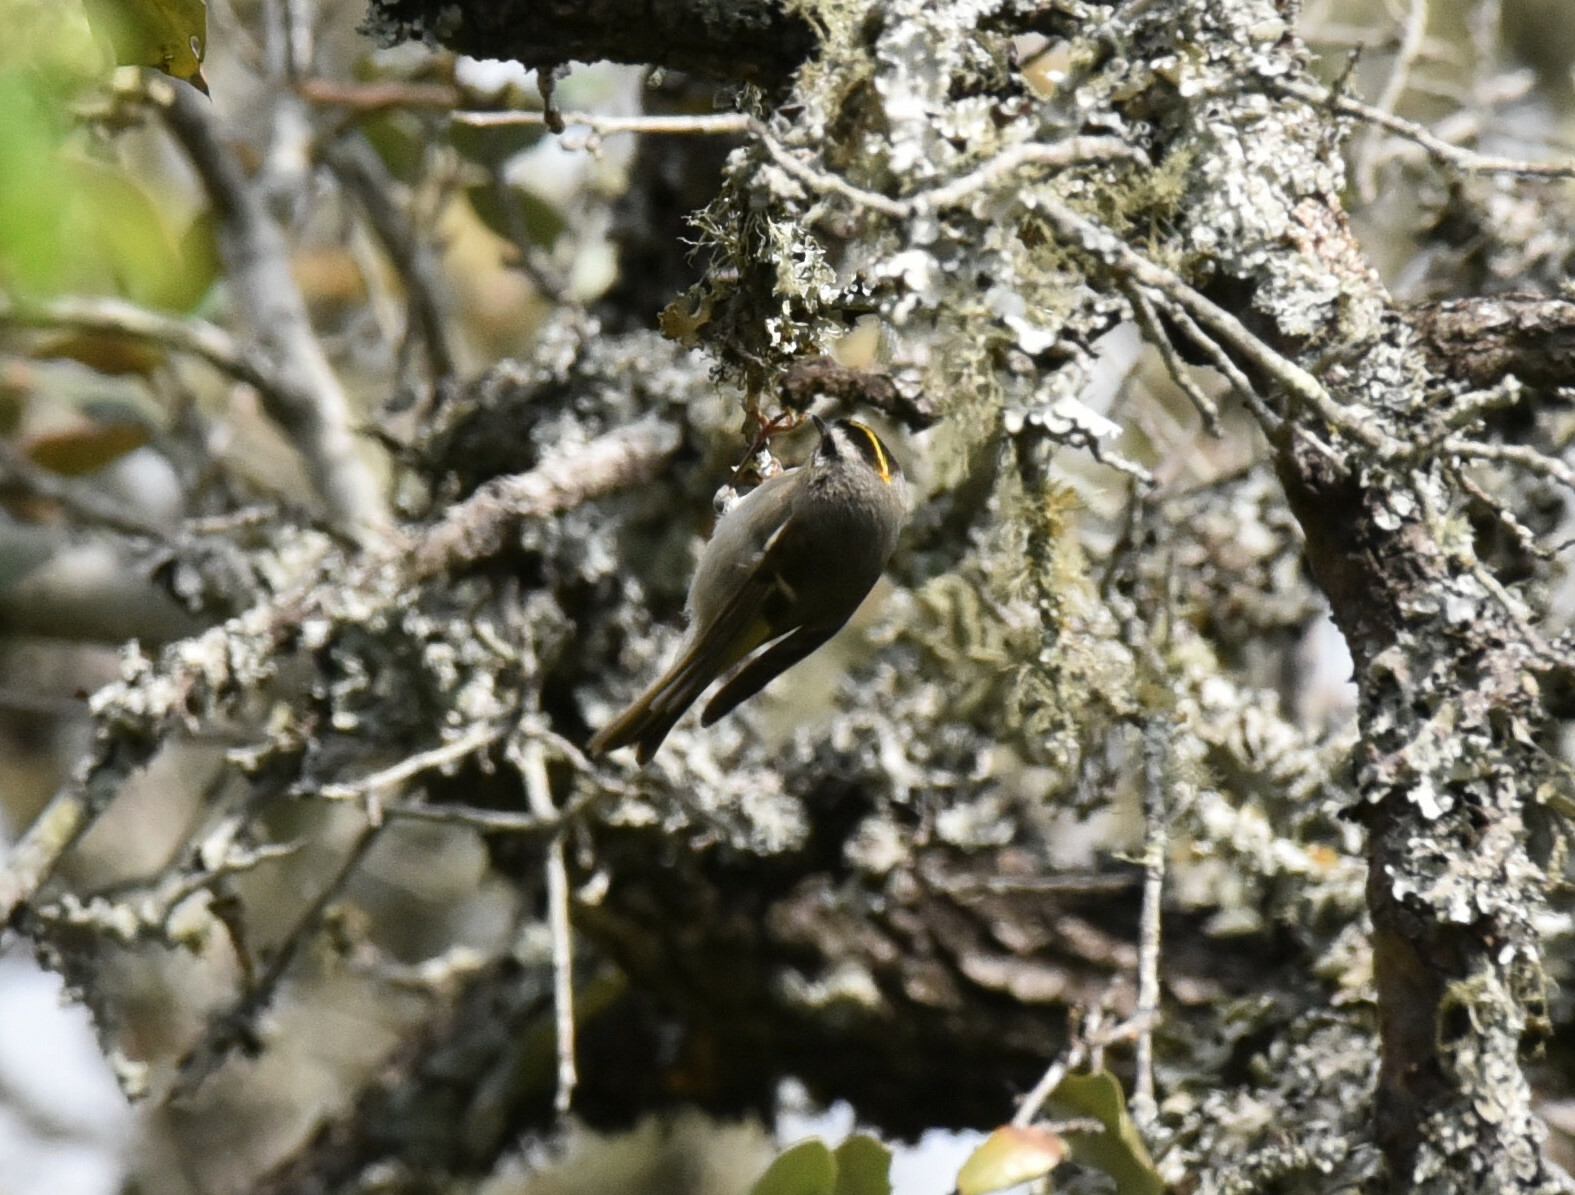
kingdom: Animalia
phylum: Chordata
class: Aves
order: Passeriformes
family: Regulidae
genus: Regulus
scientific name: Regulus satrapa
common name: Golden-crowned kinglet
